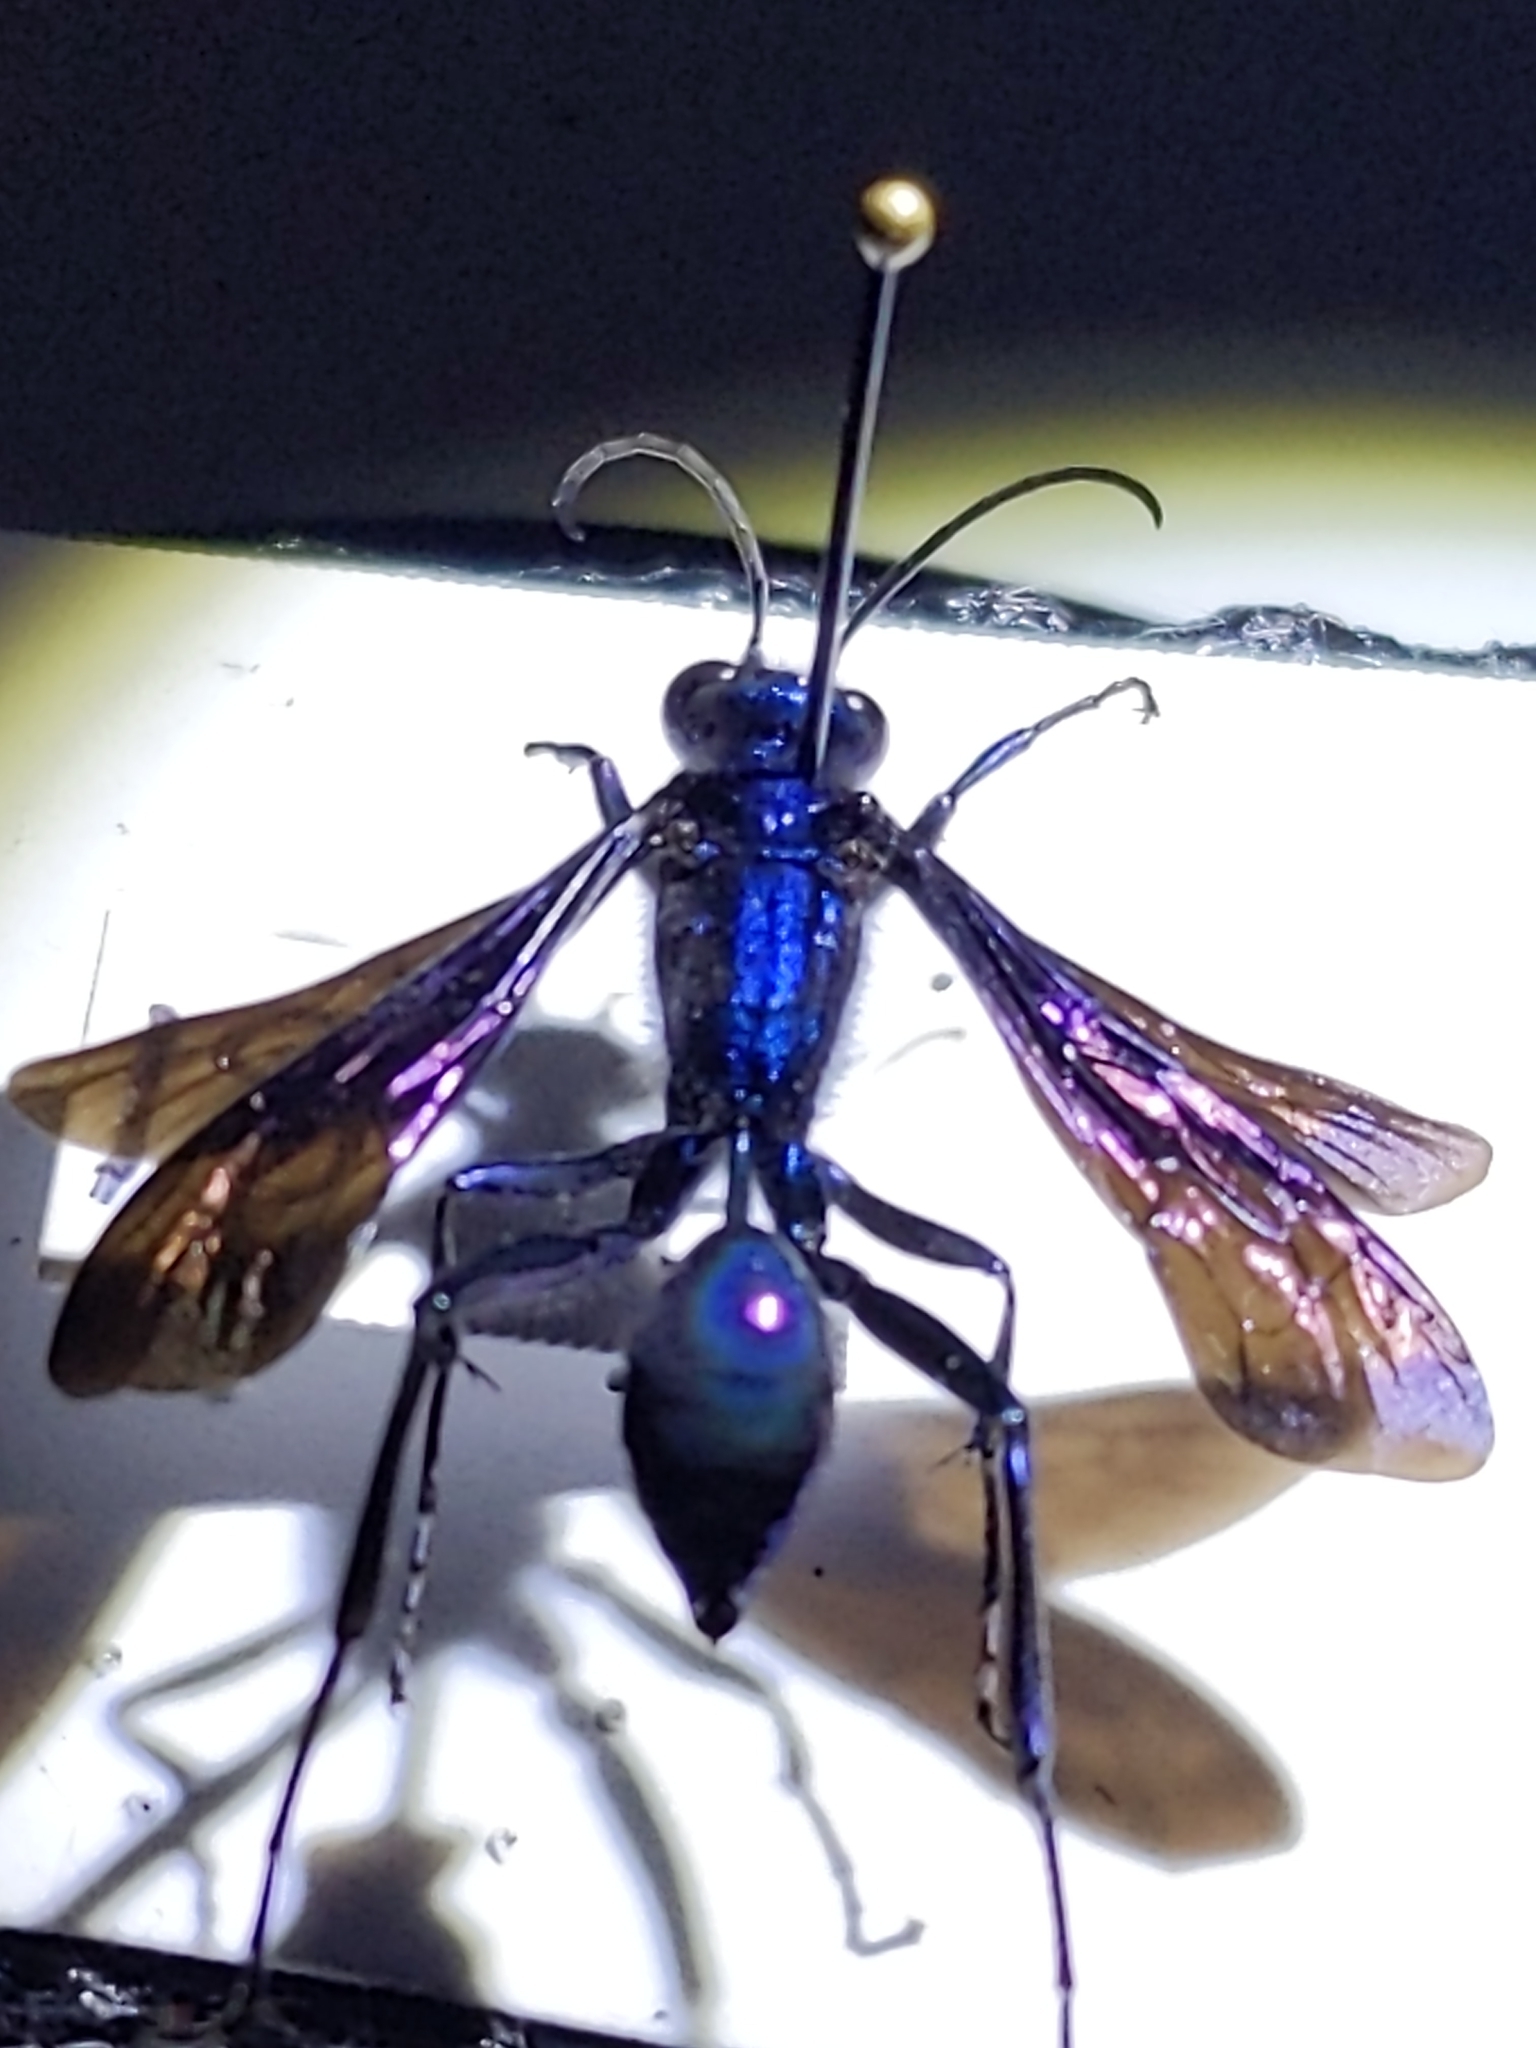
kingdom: Animalia
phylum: Arthropoda
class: Insecta
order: Hymenoptera
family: Sphecidae
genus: Chalybion
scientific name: Chalybion californicum
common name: Mud dauber
